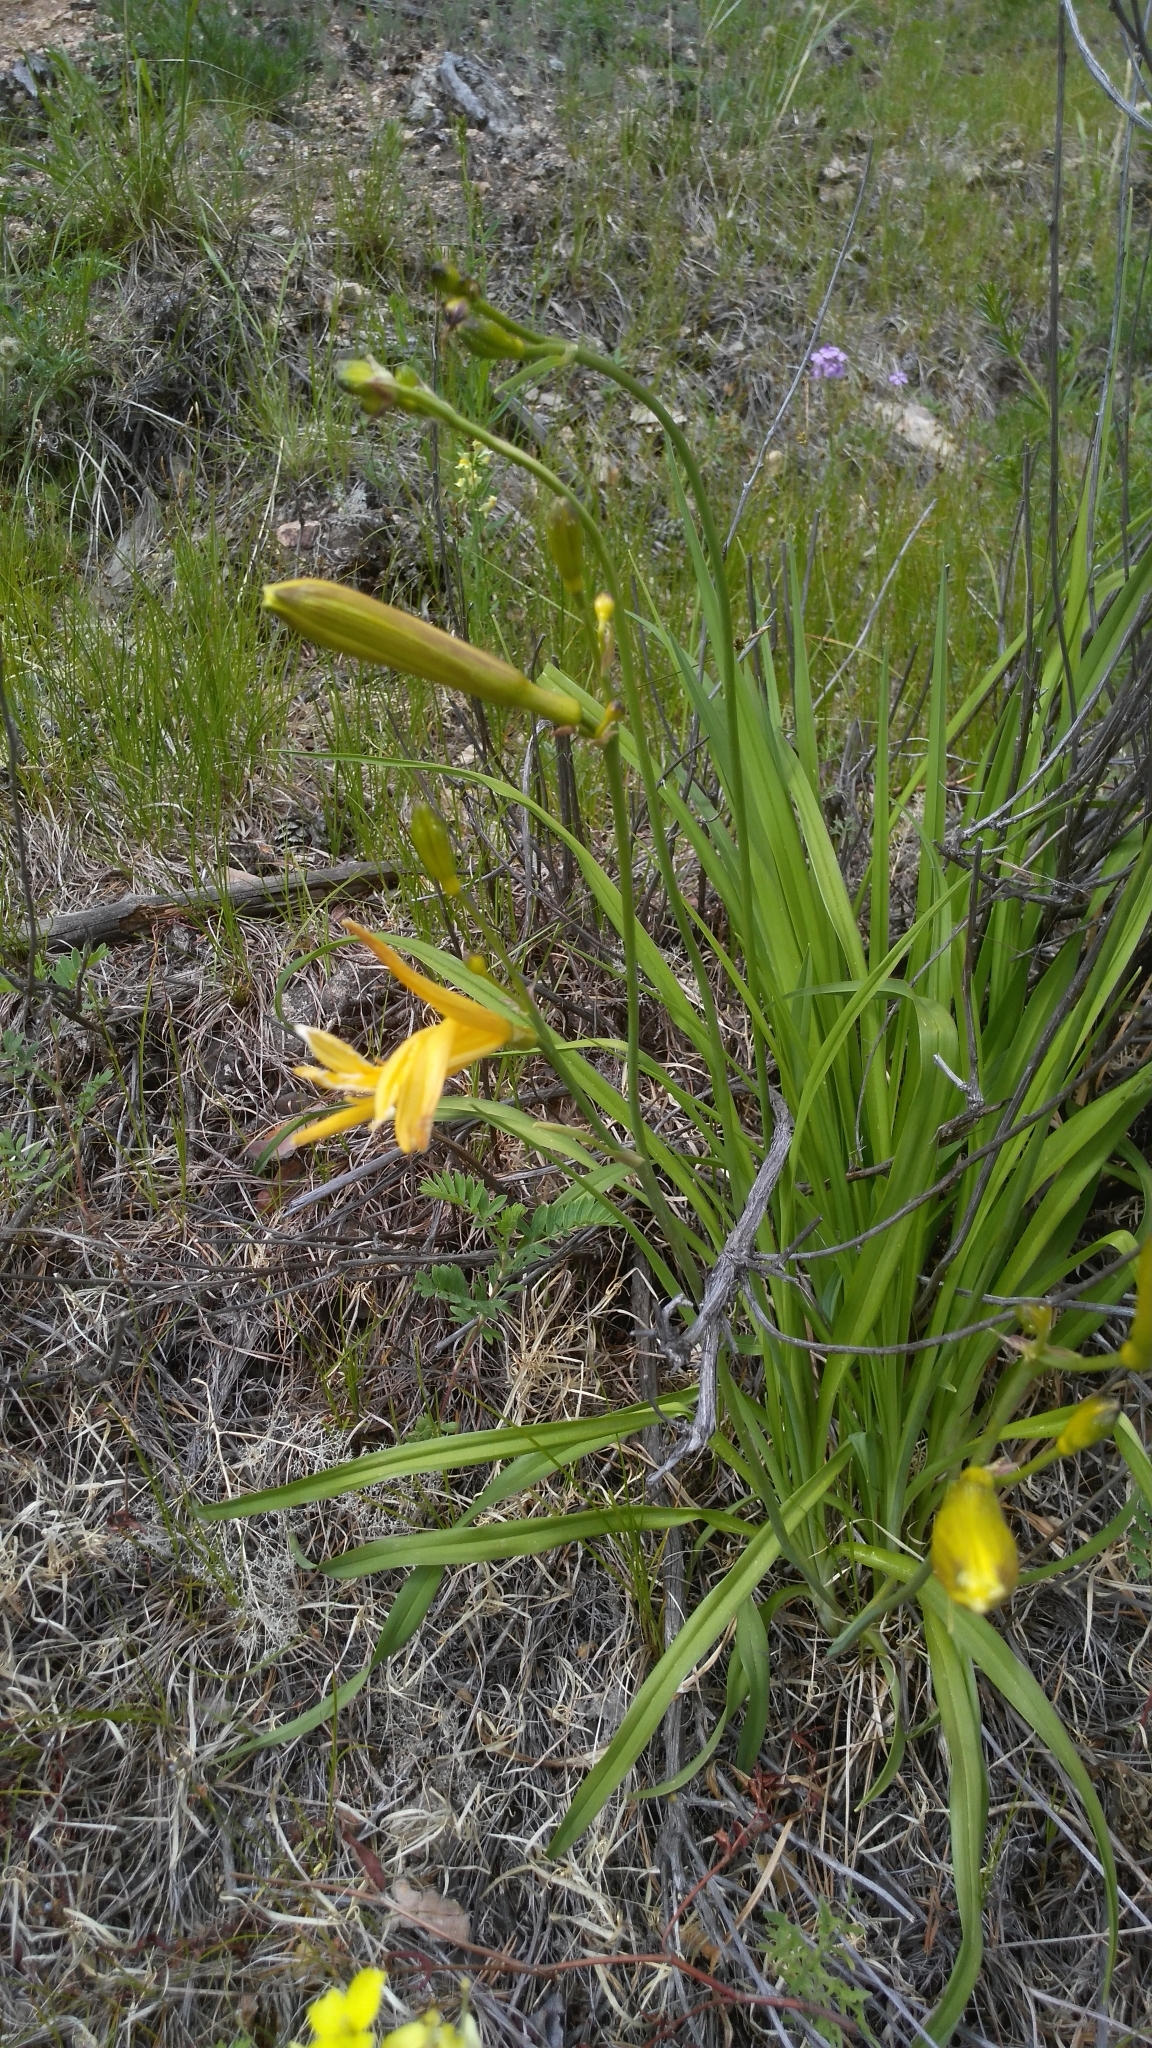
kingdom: Plantae
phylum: Tracheophyta
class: Liliopsida
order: Asparagales
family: Asphodelaceae
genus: Hemerocallis
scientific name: Hemerocallis minor
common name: Small daylily
